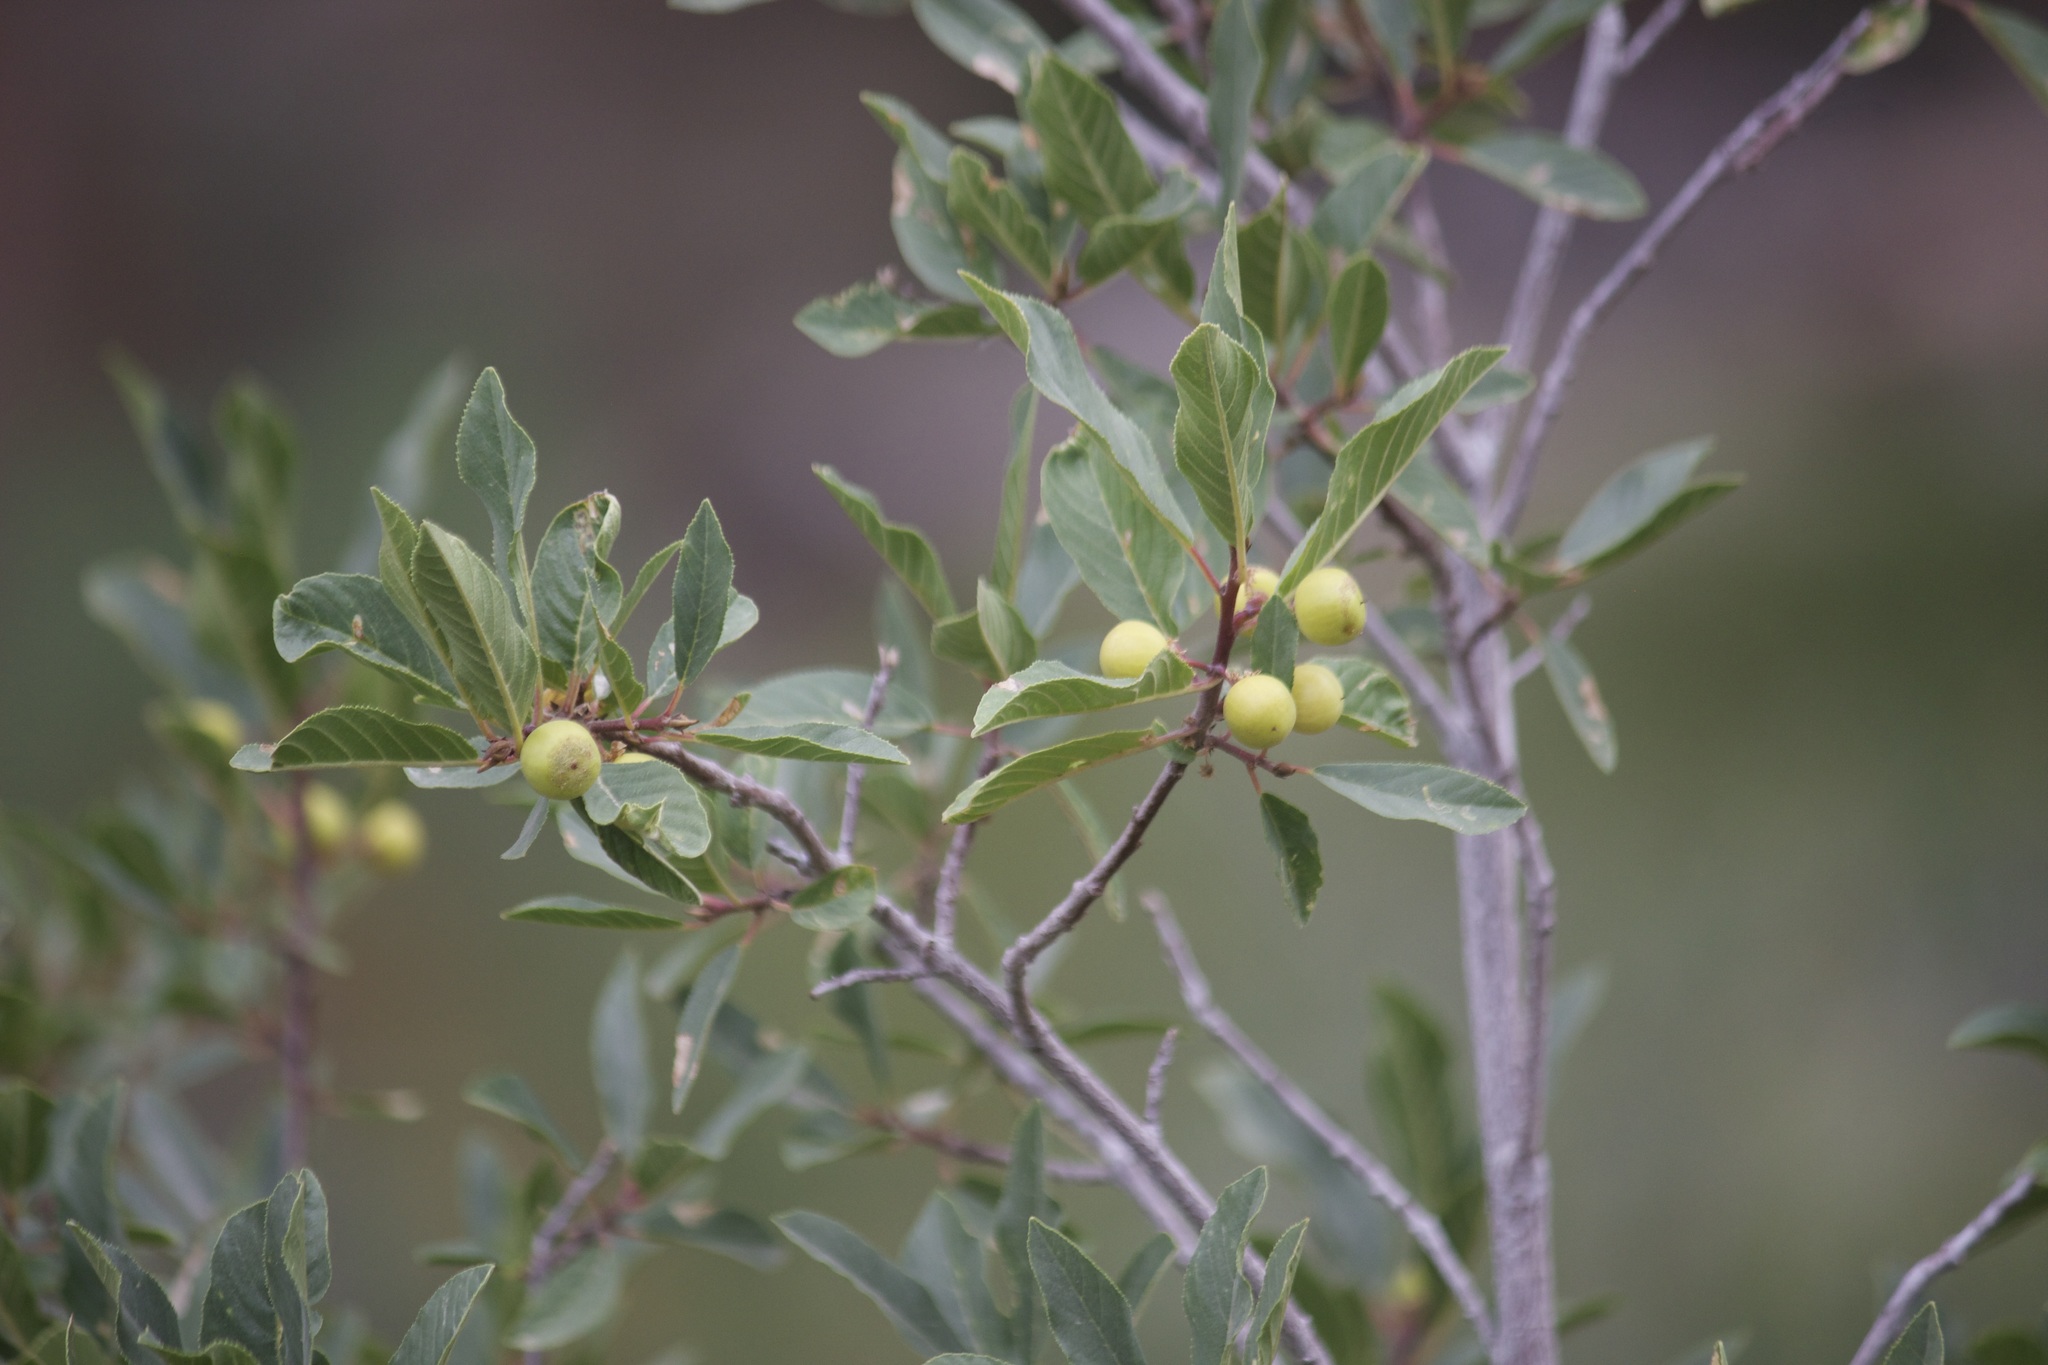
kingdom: Plantae
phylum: Tracheophyta
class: Magnoliopsida
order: Rosales
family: Rosaceae
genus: Prunus
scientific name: Prunus emarginata
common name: Bitter cherry
